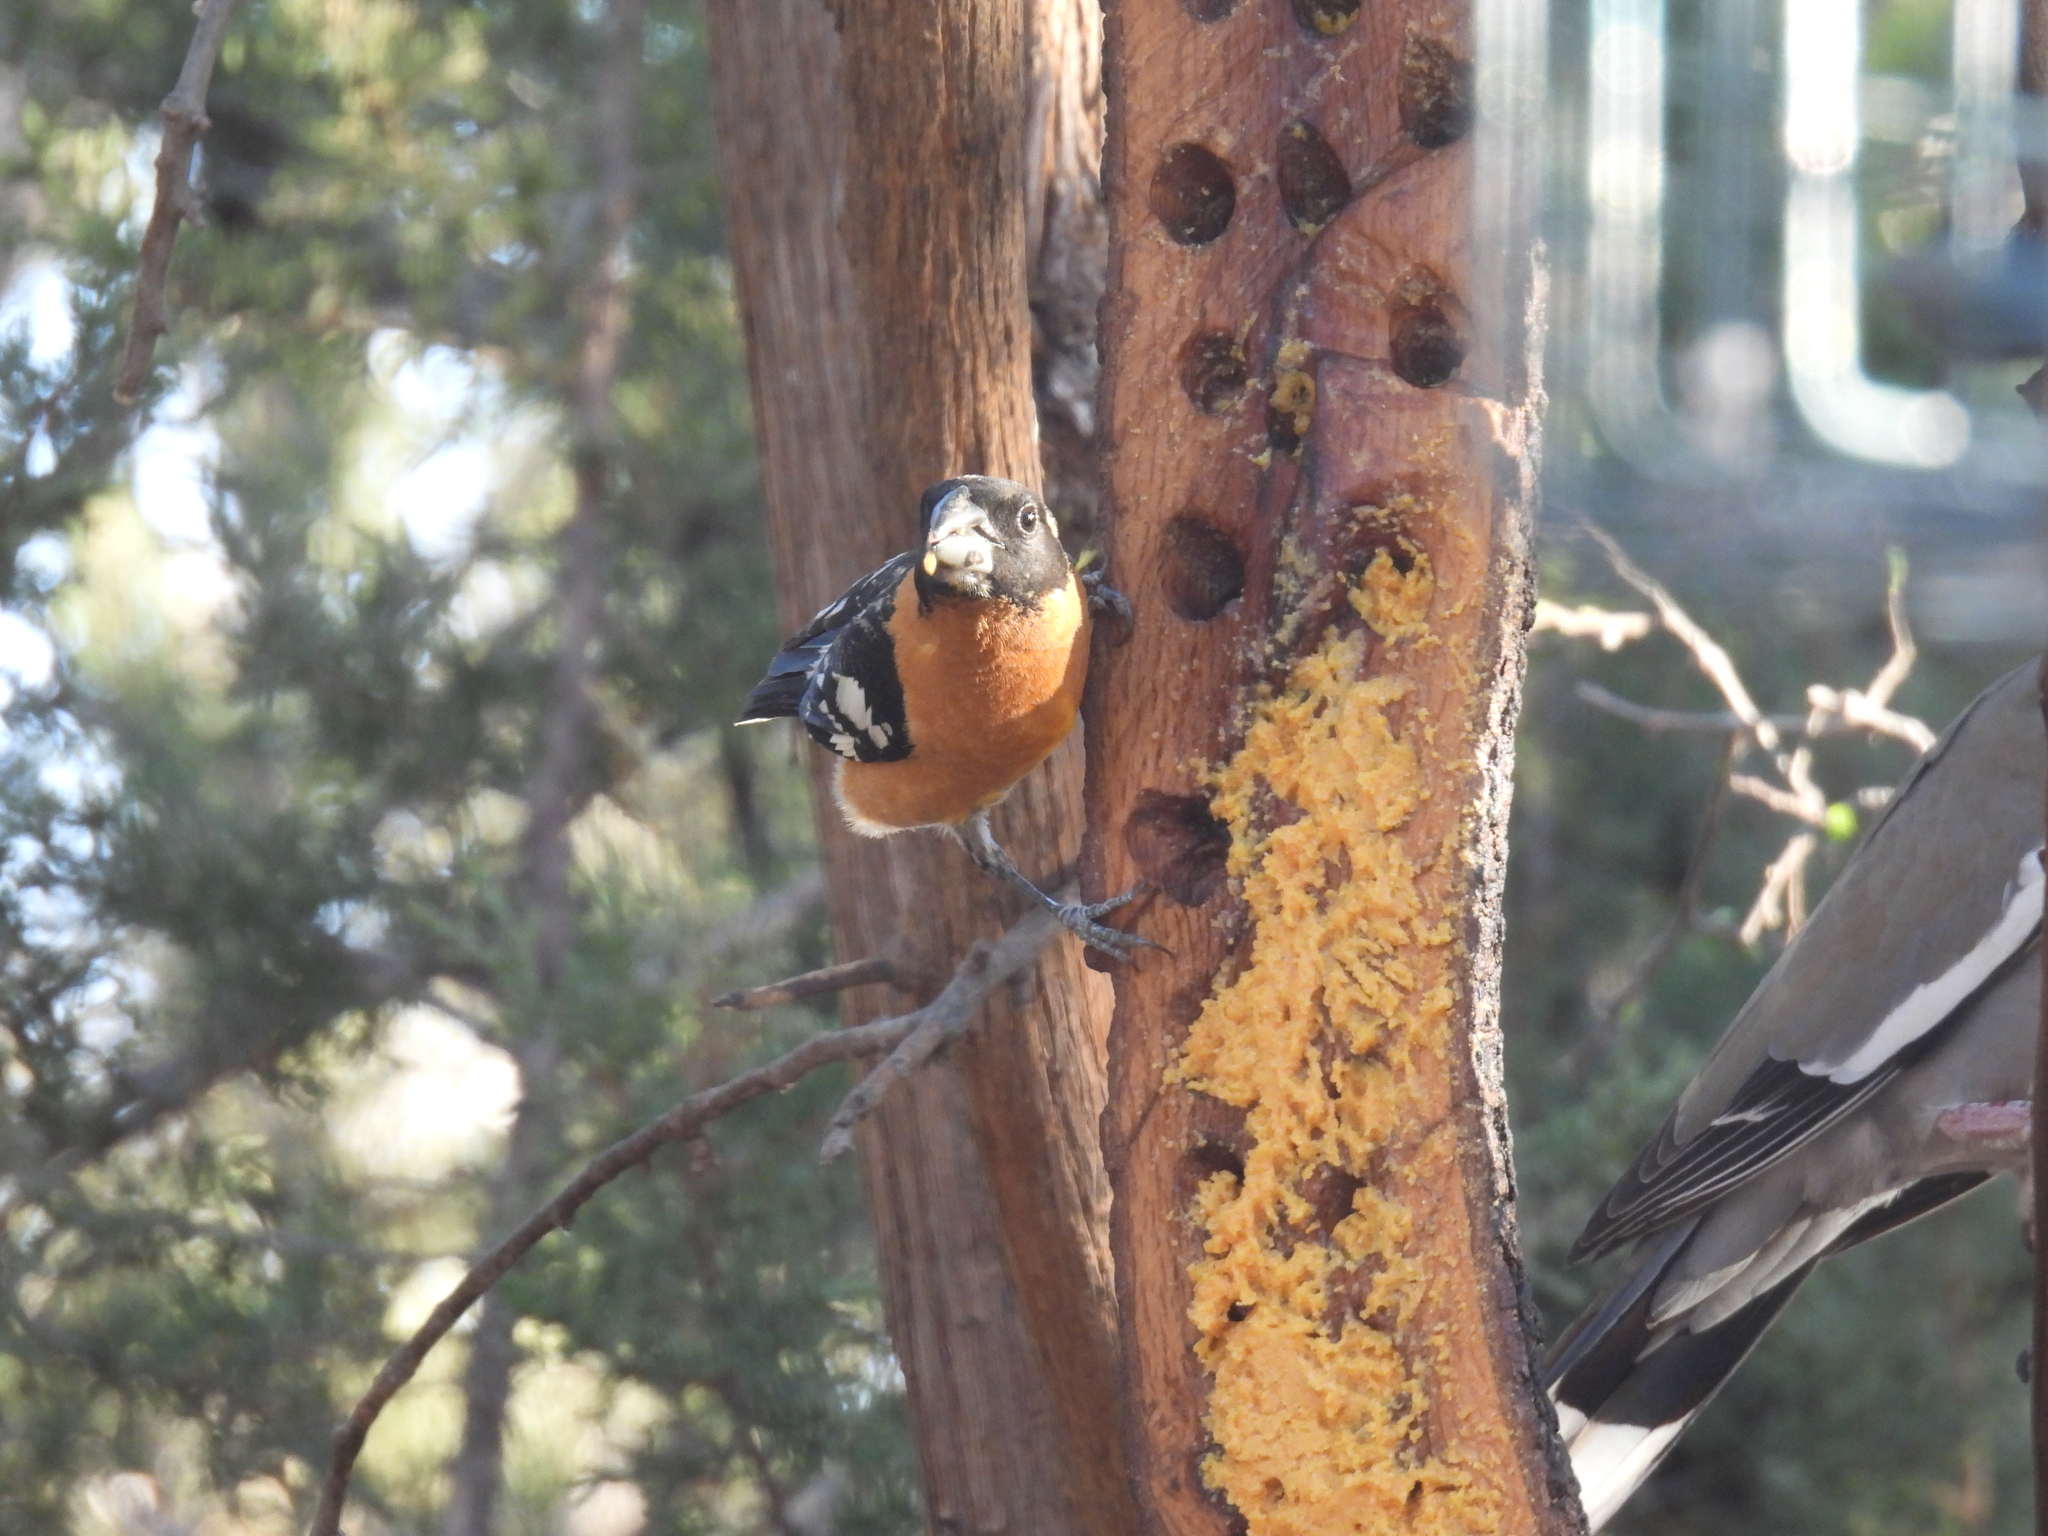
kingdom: Animalia
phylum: Chordata
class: Aves
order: Passeriformes
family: Cardinalidae
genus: Pheucticus
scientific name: Pheucticus melanocephalus
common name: Black-headed grosbeak
